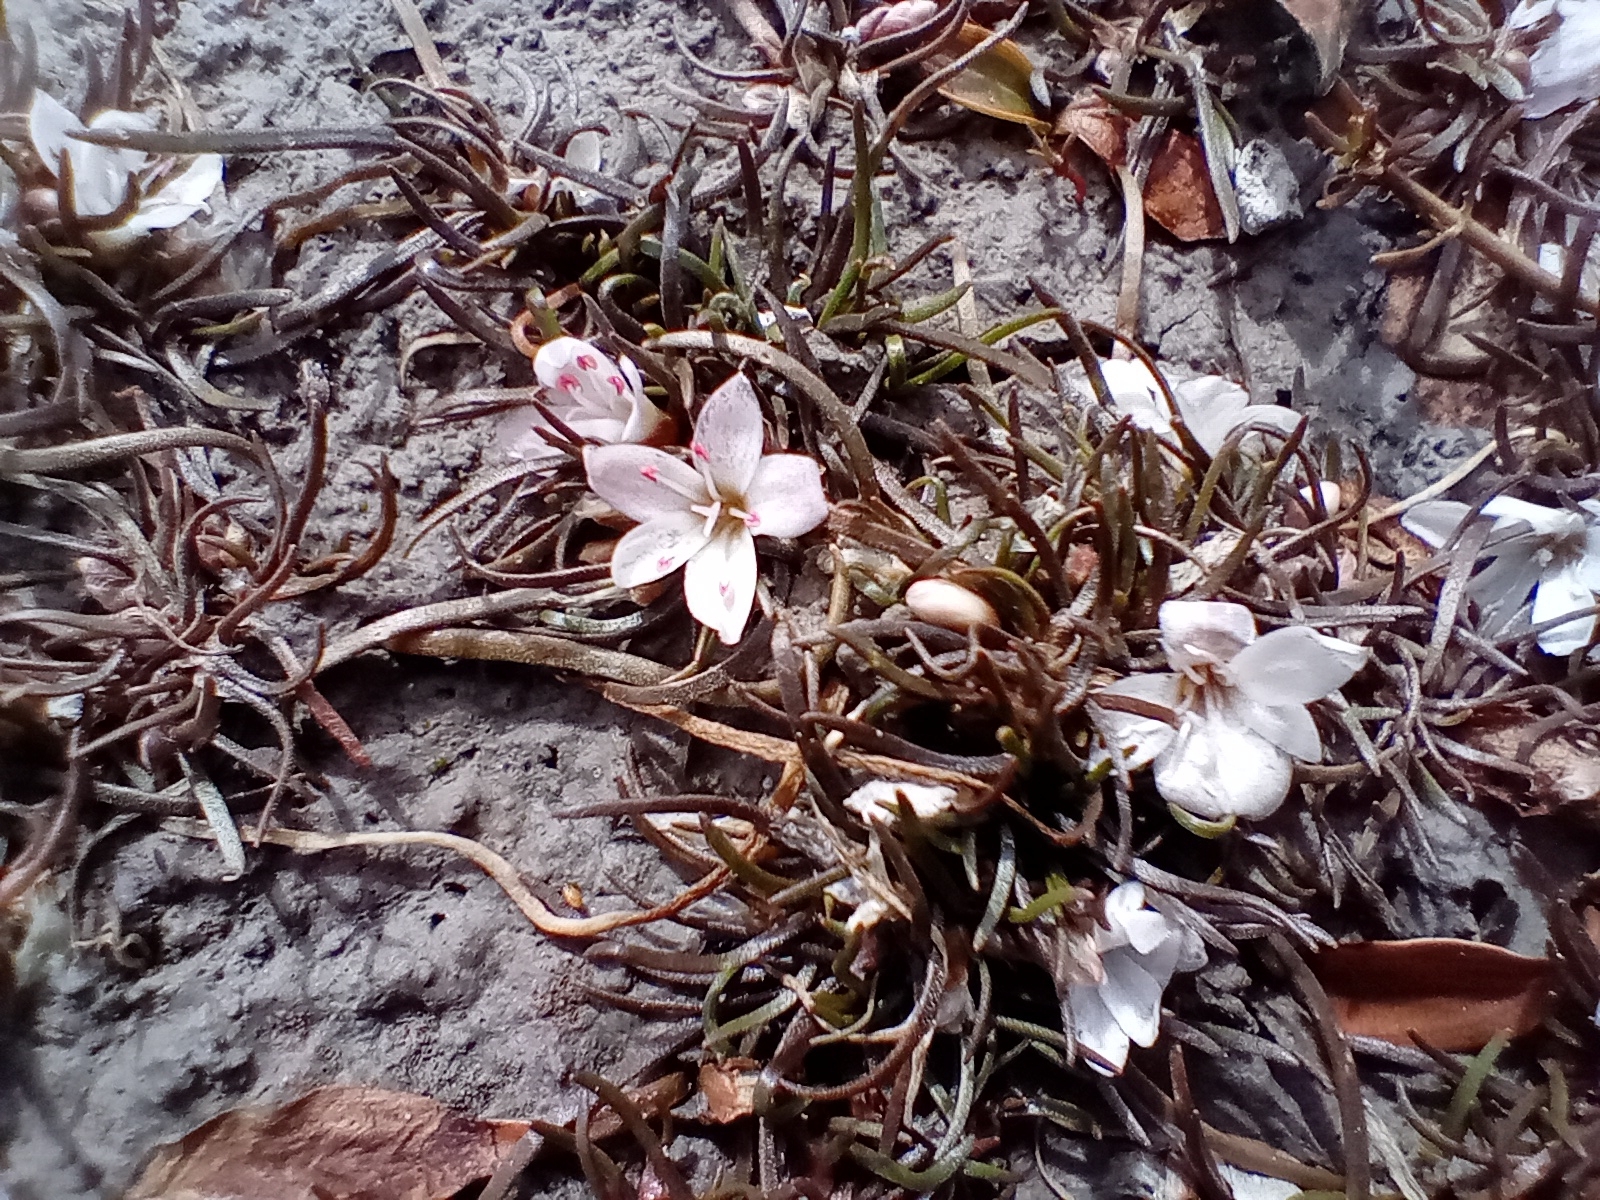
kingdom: Plantae
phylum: Tracheophyta
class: Magnoliopsida
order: Caryophyllales
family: Montiaceae
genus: Montia
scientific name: Montia angustifolia
